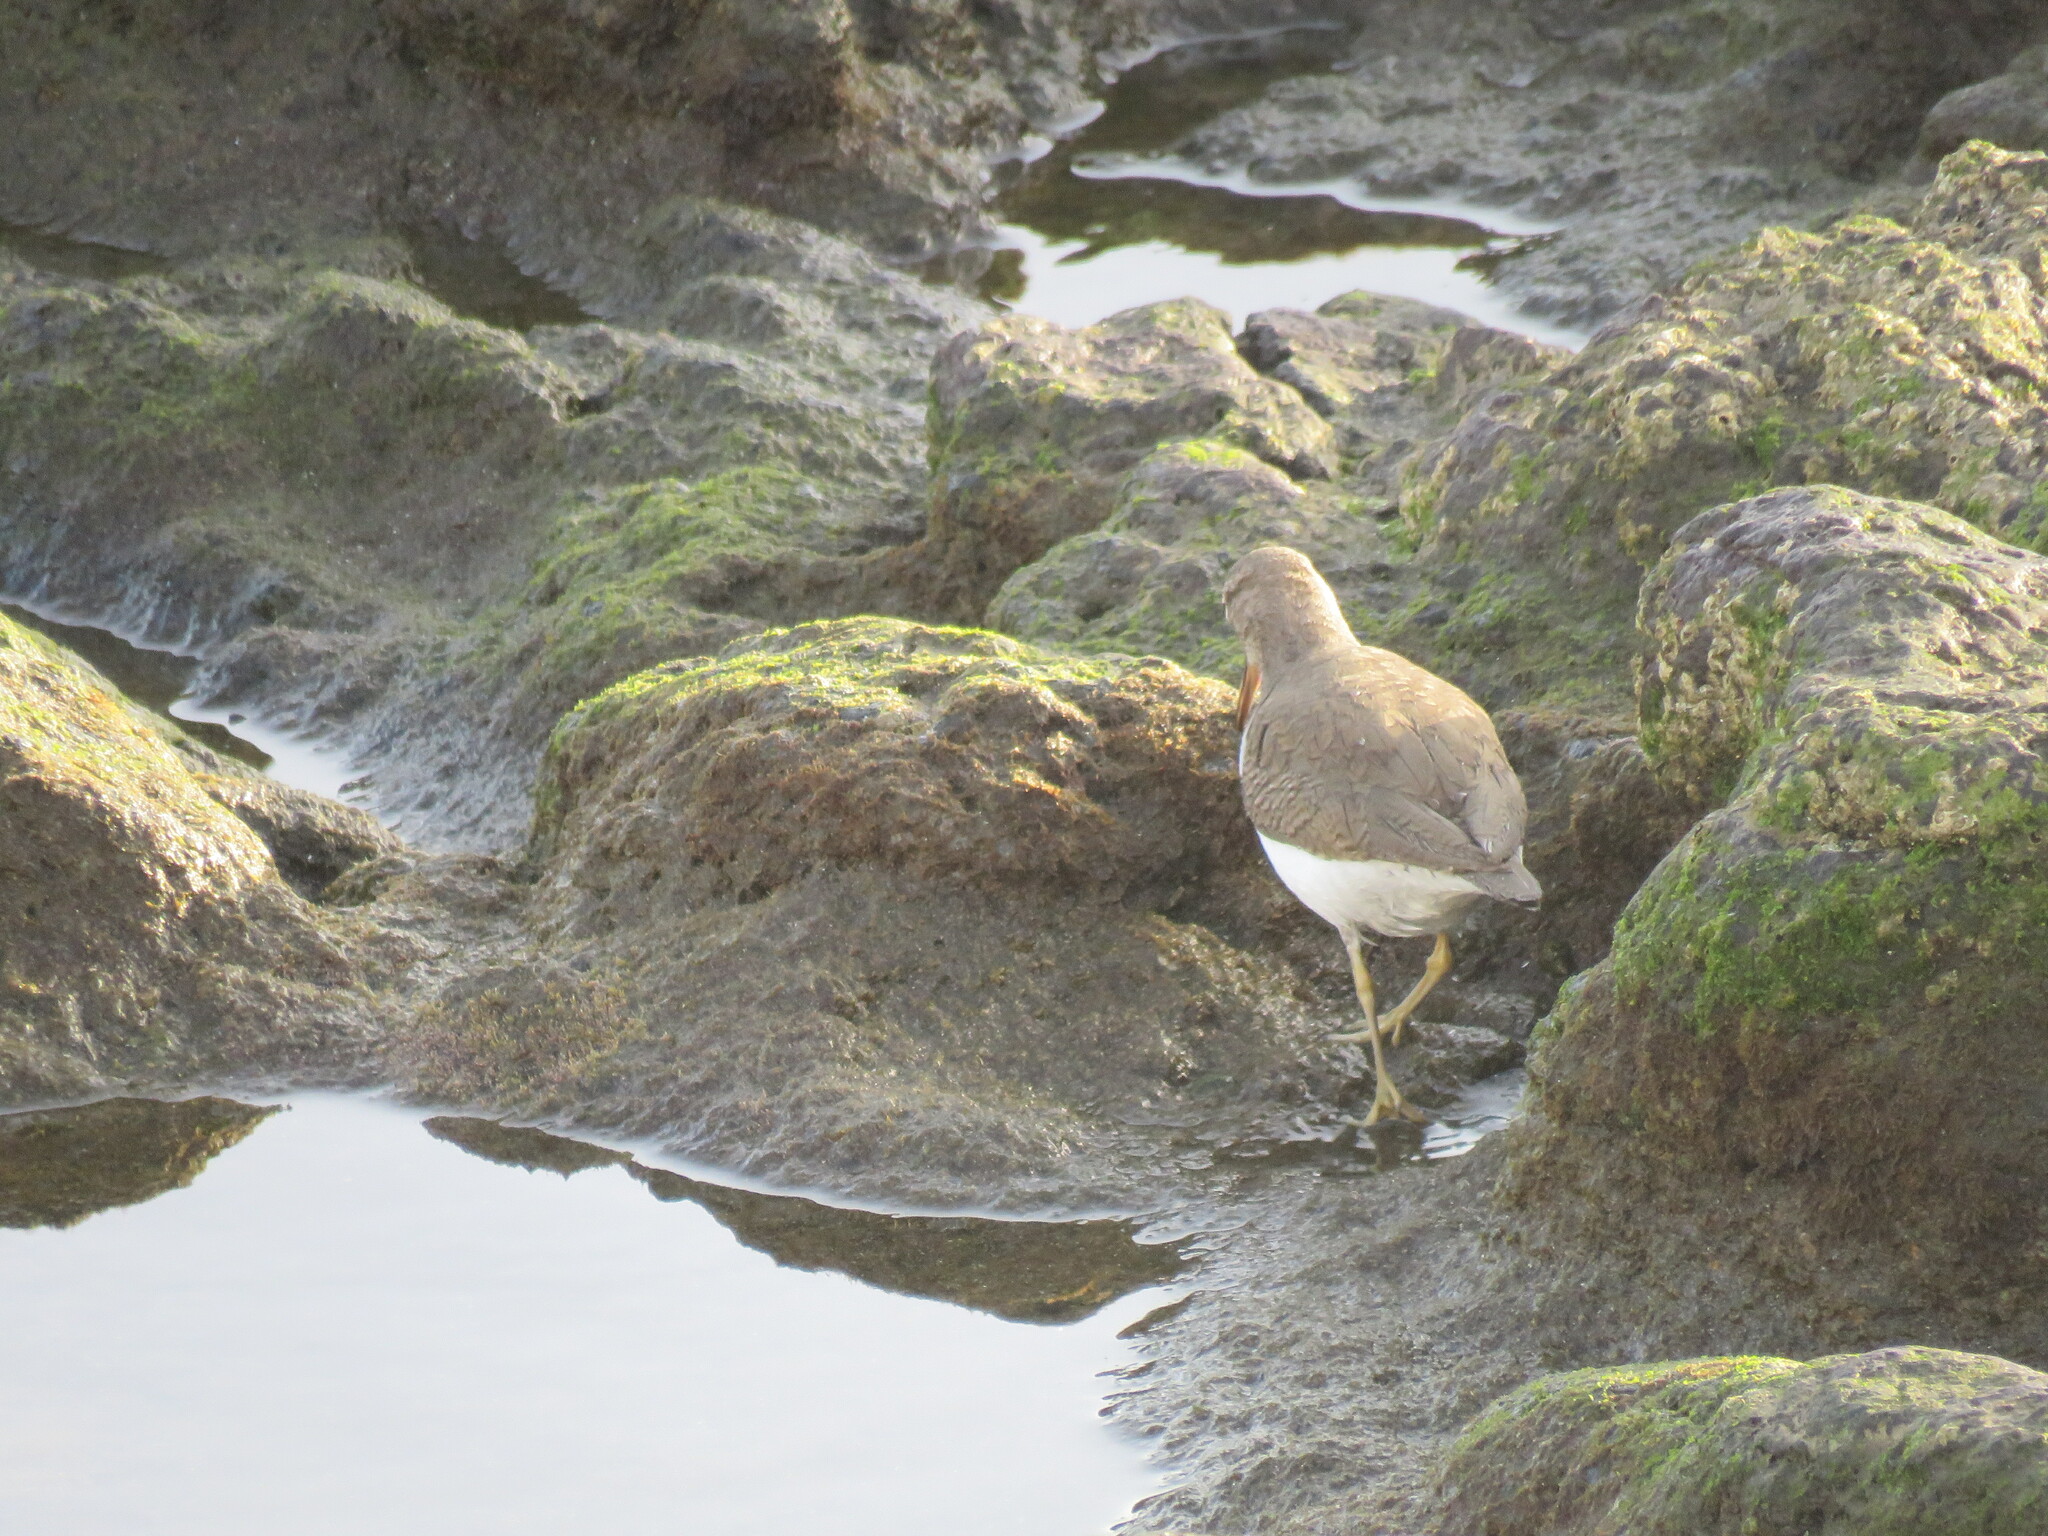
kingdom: Animalia
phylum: Chordata
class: Aves
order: Charadriiformes
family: Scolopacidae
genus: Actitis
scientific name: Actitis hypoleucos
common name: Common sandpiper
